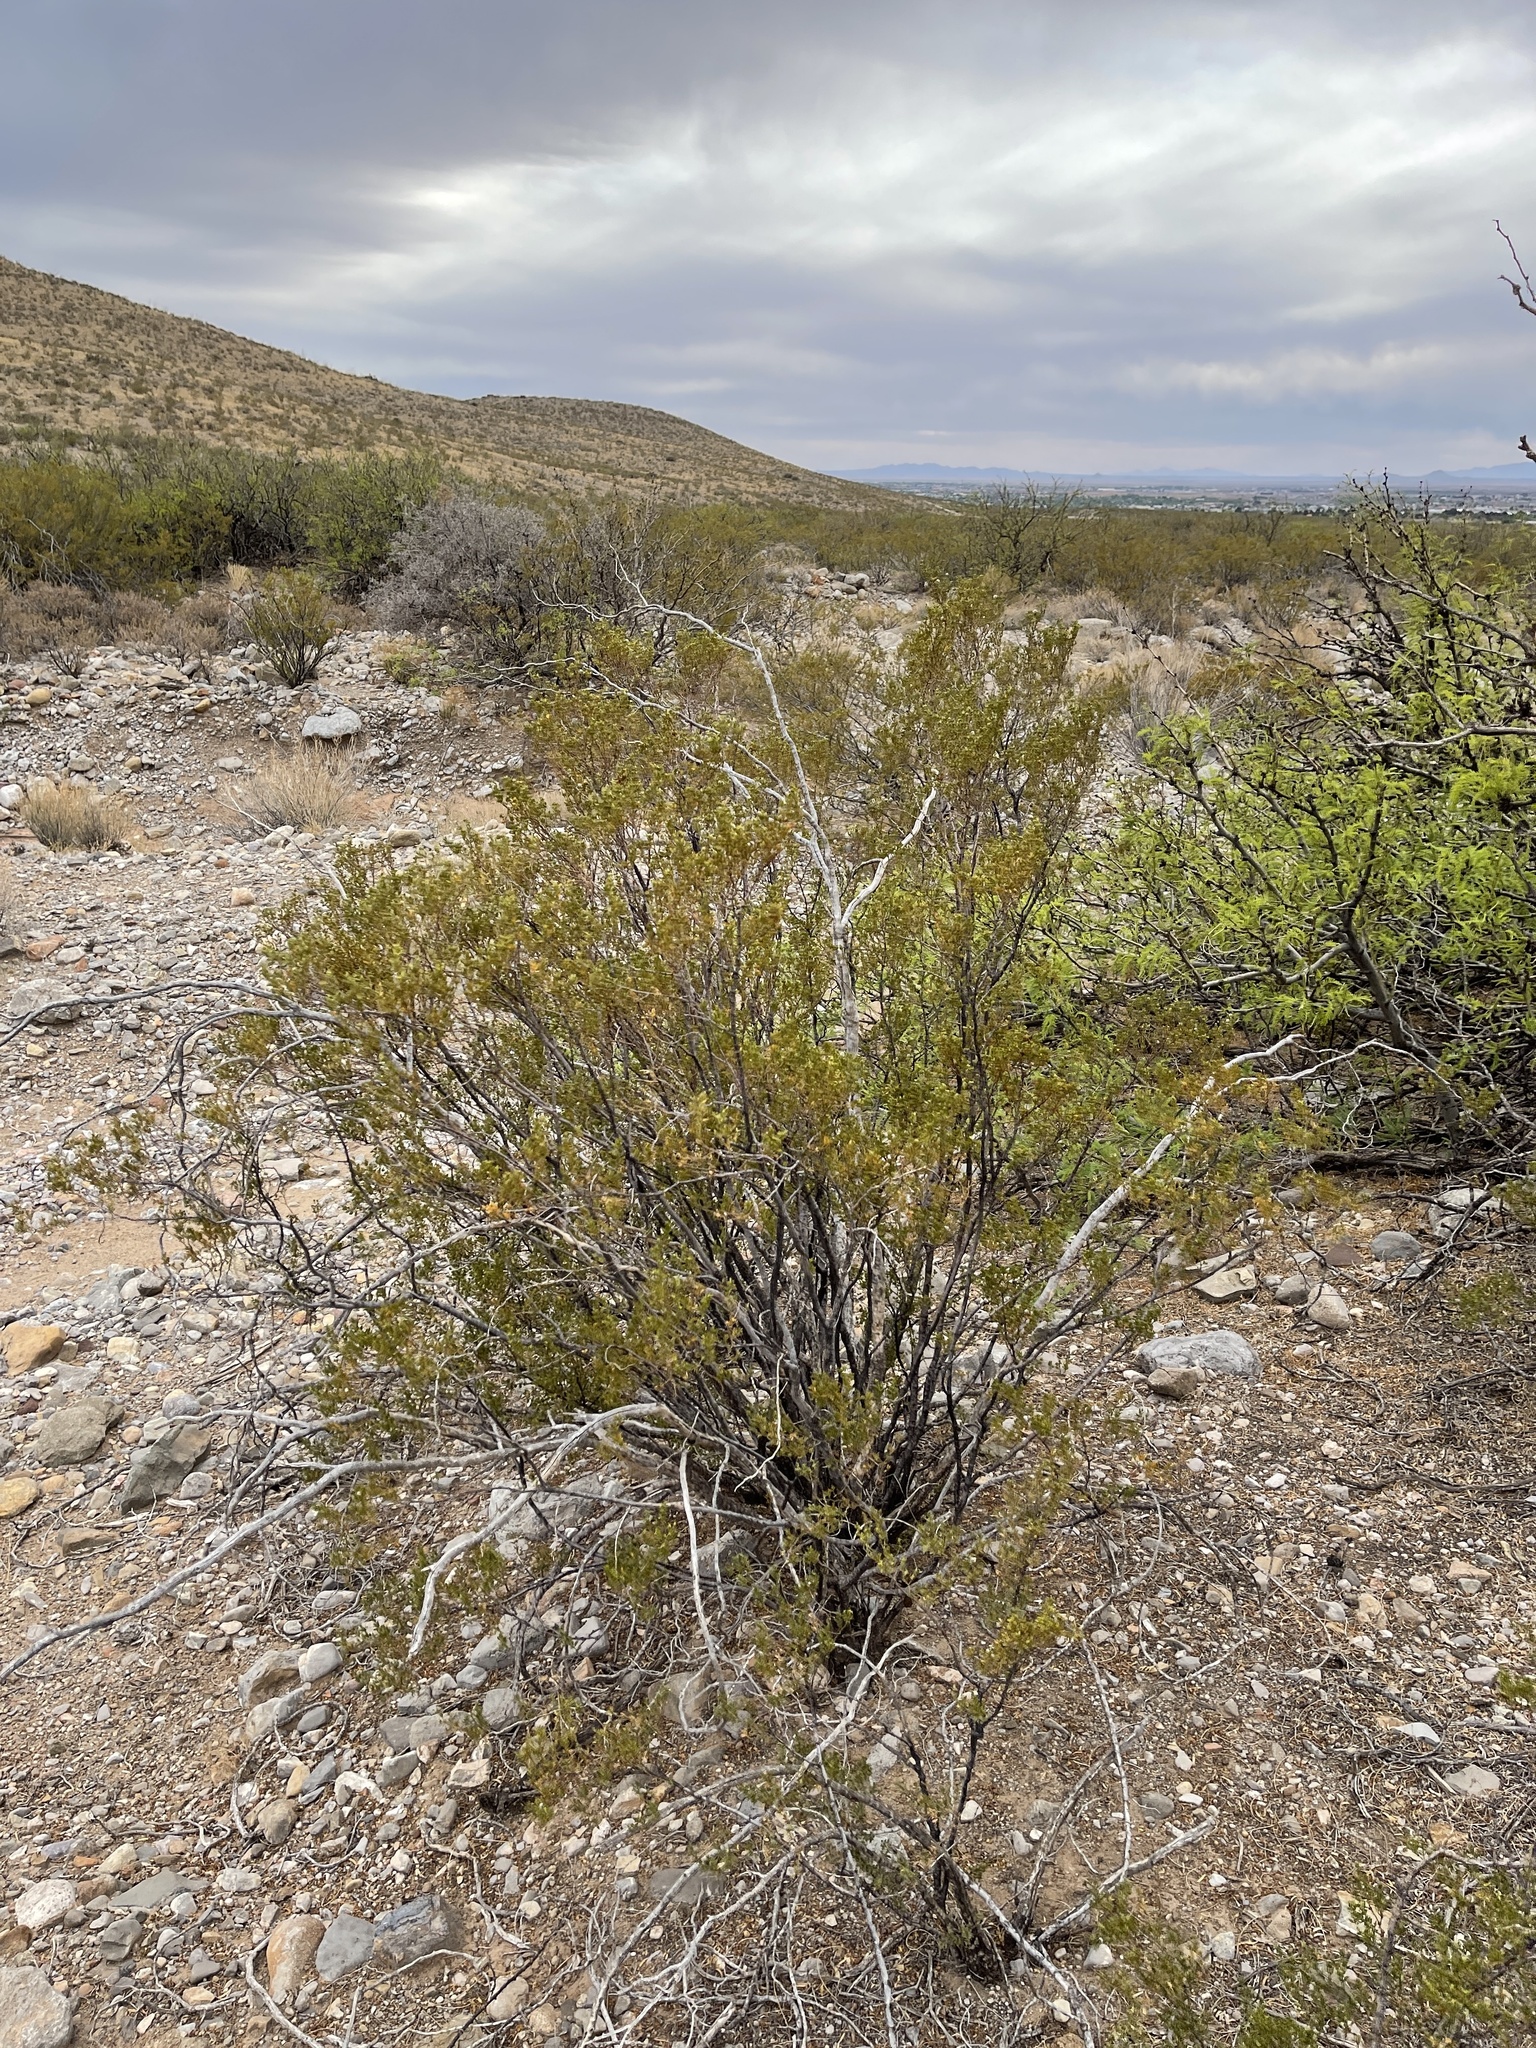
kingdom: Plantae
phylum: Tracheophyta
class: Magnoliopsida
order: Zygophyllales
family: Zygophyllaceae
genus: Larrea
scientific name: Larrea tridentata
